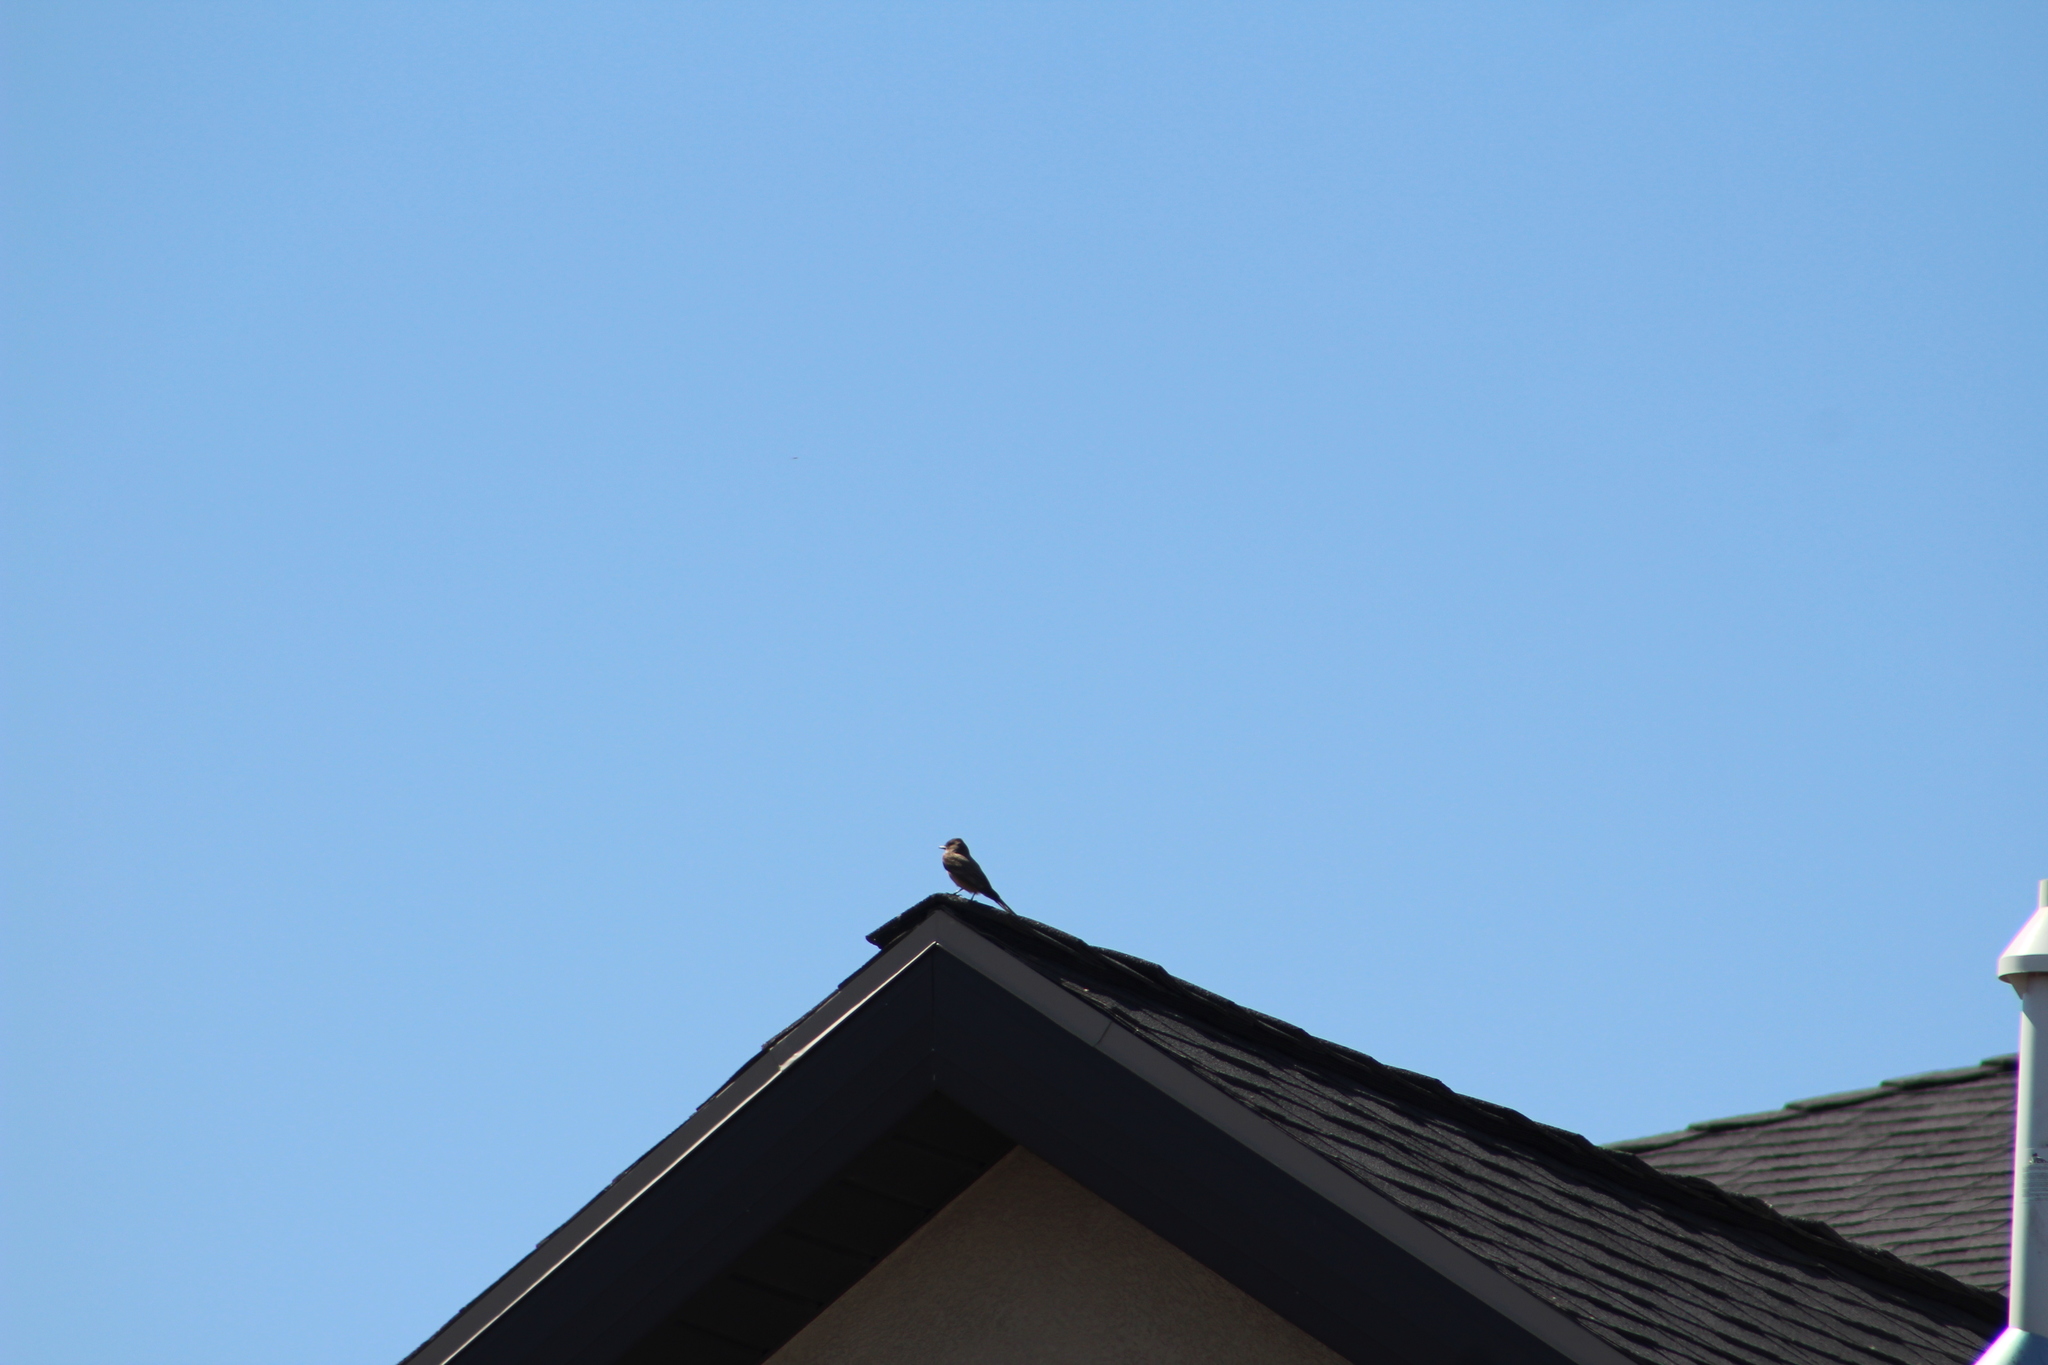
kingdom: Animalia
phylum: Chordata
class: Aves
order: Passeriformes
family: Tyrannidae
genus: Sayornis
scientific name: Sayornis saya
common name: Say's phoebe
